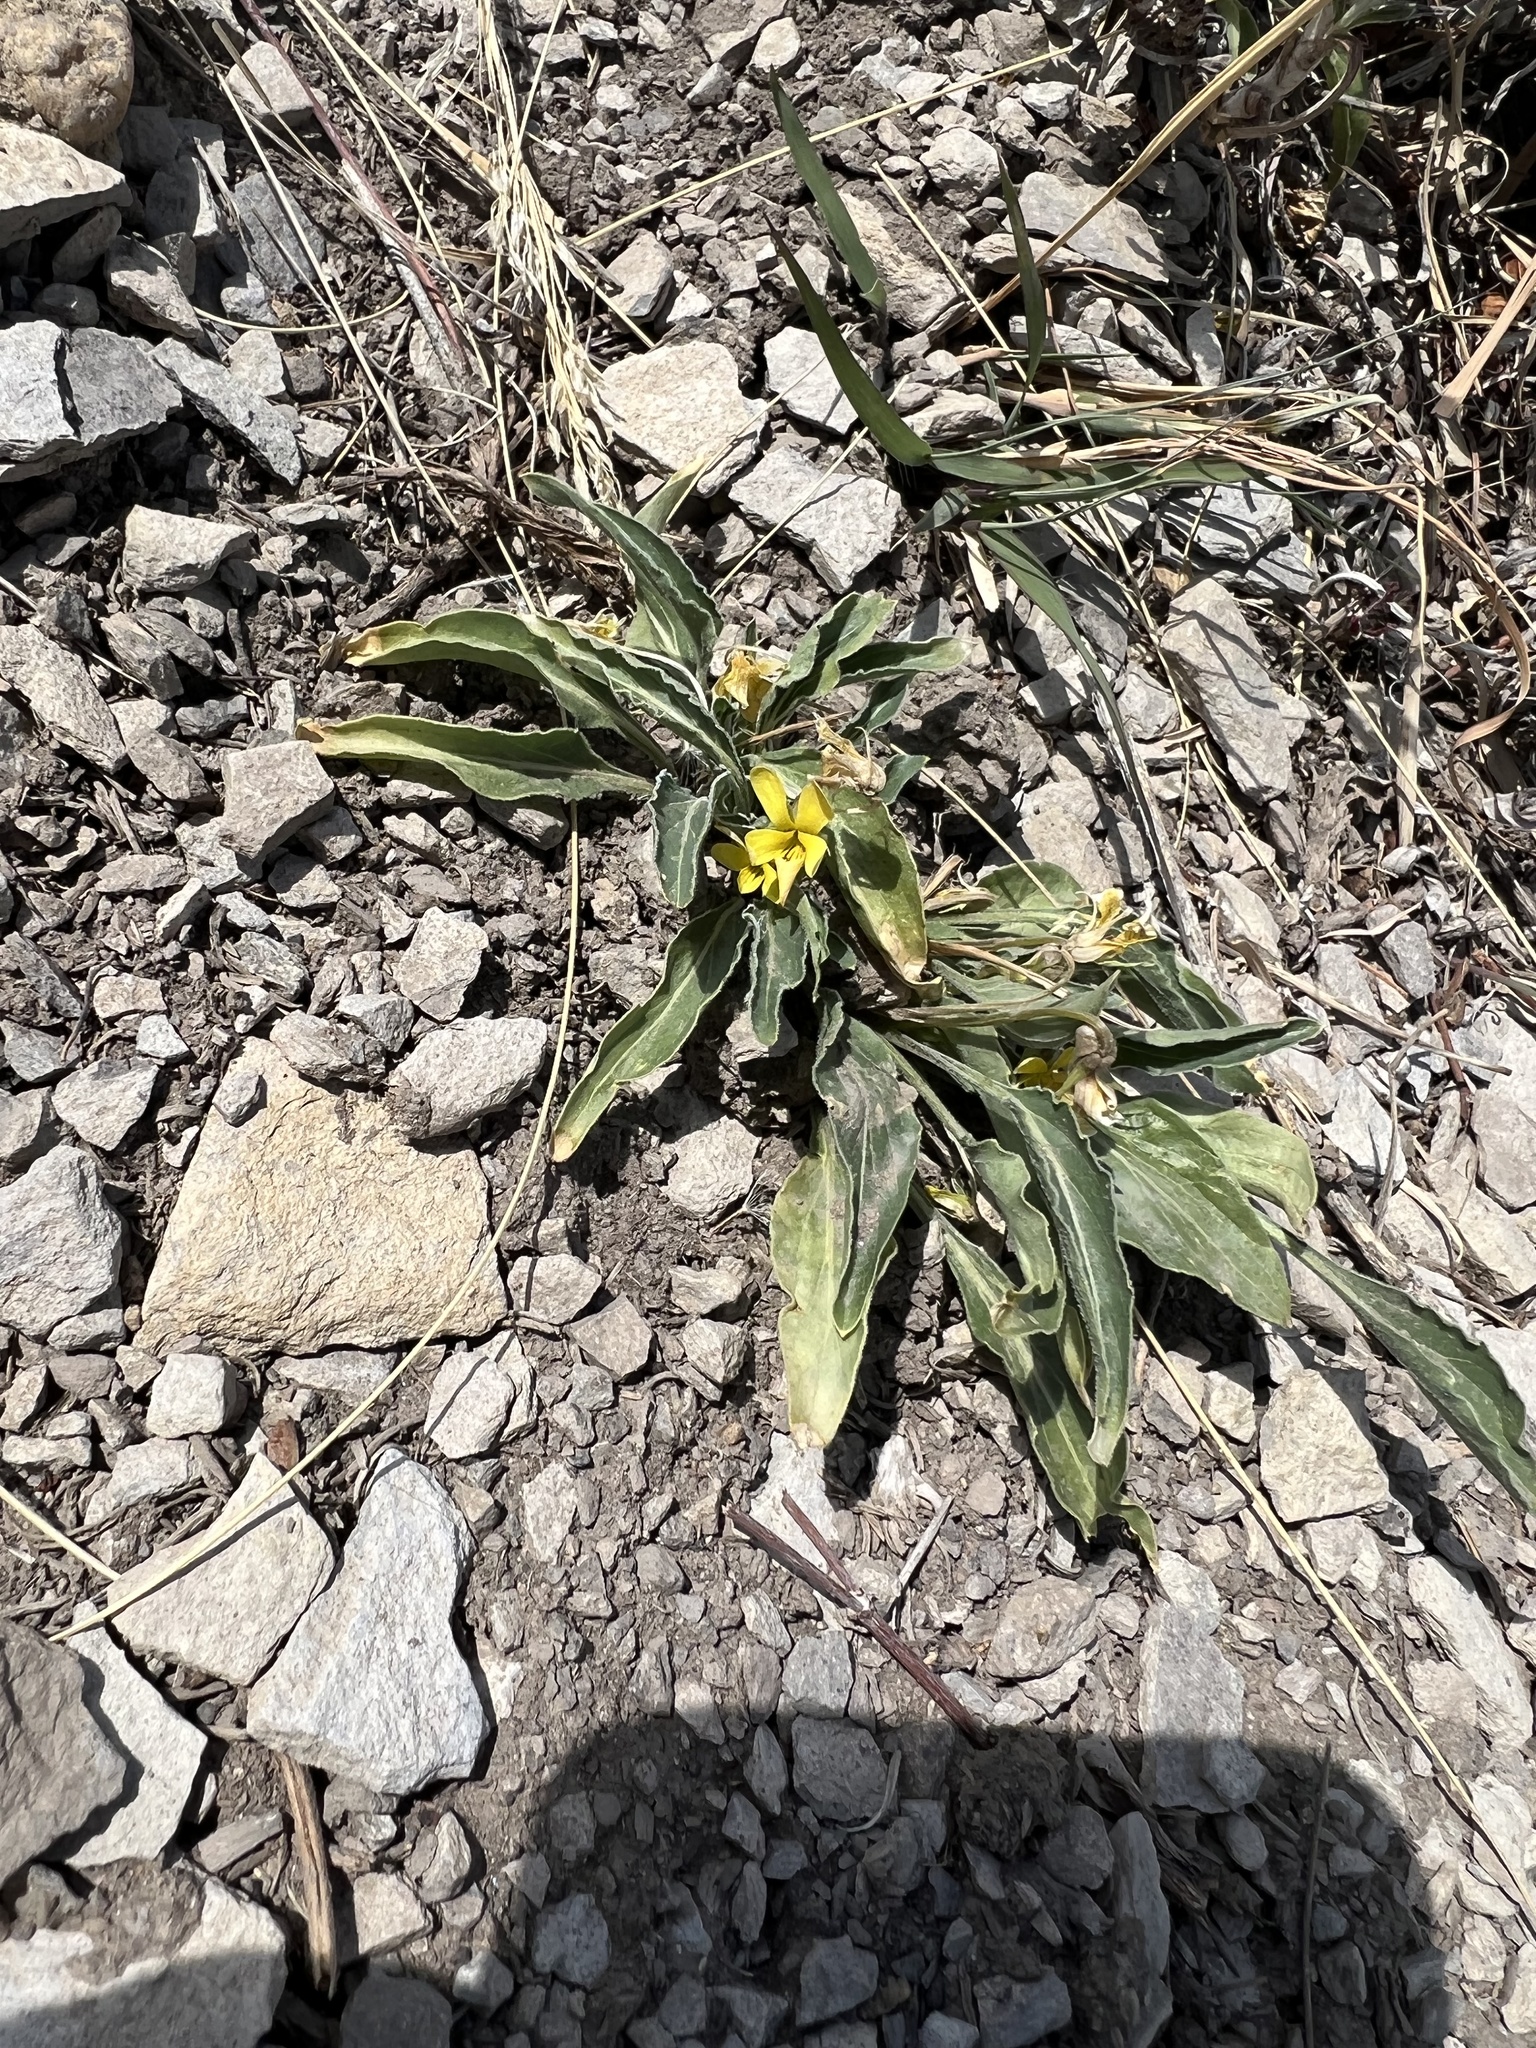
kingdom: Plantae
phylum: Tracheophyta
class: Magnoliopsida
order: Malpighiales
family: Violaceae
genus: Viola
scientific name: Viola nuttallii
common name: Yellow prairie violet
